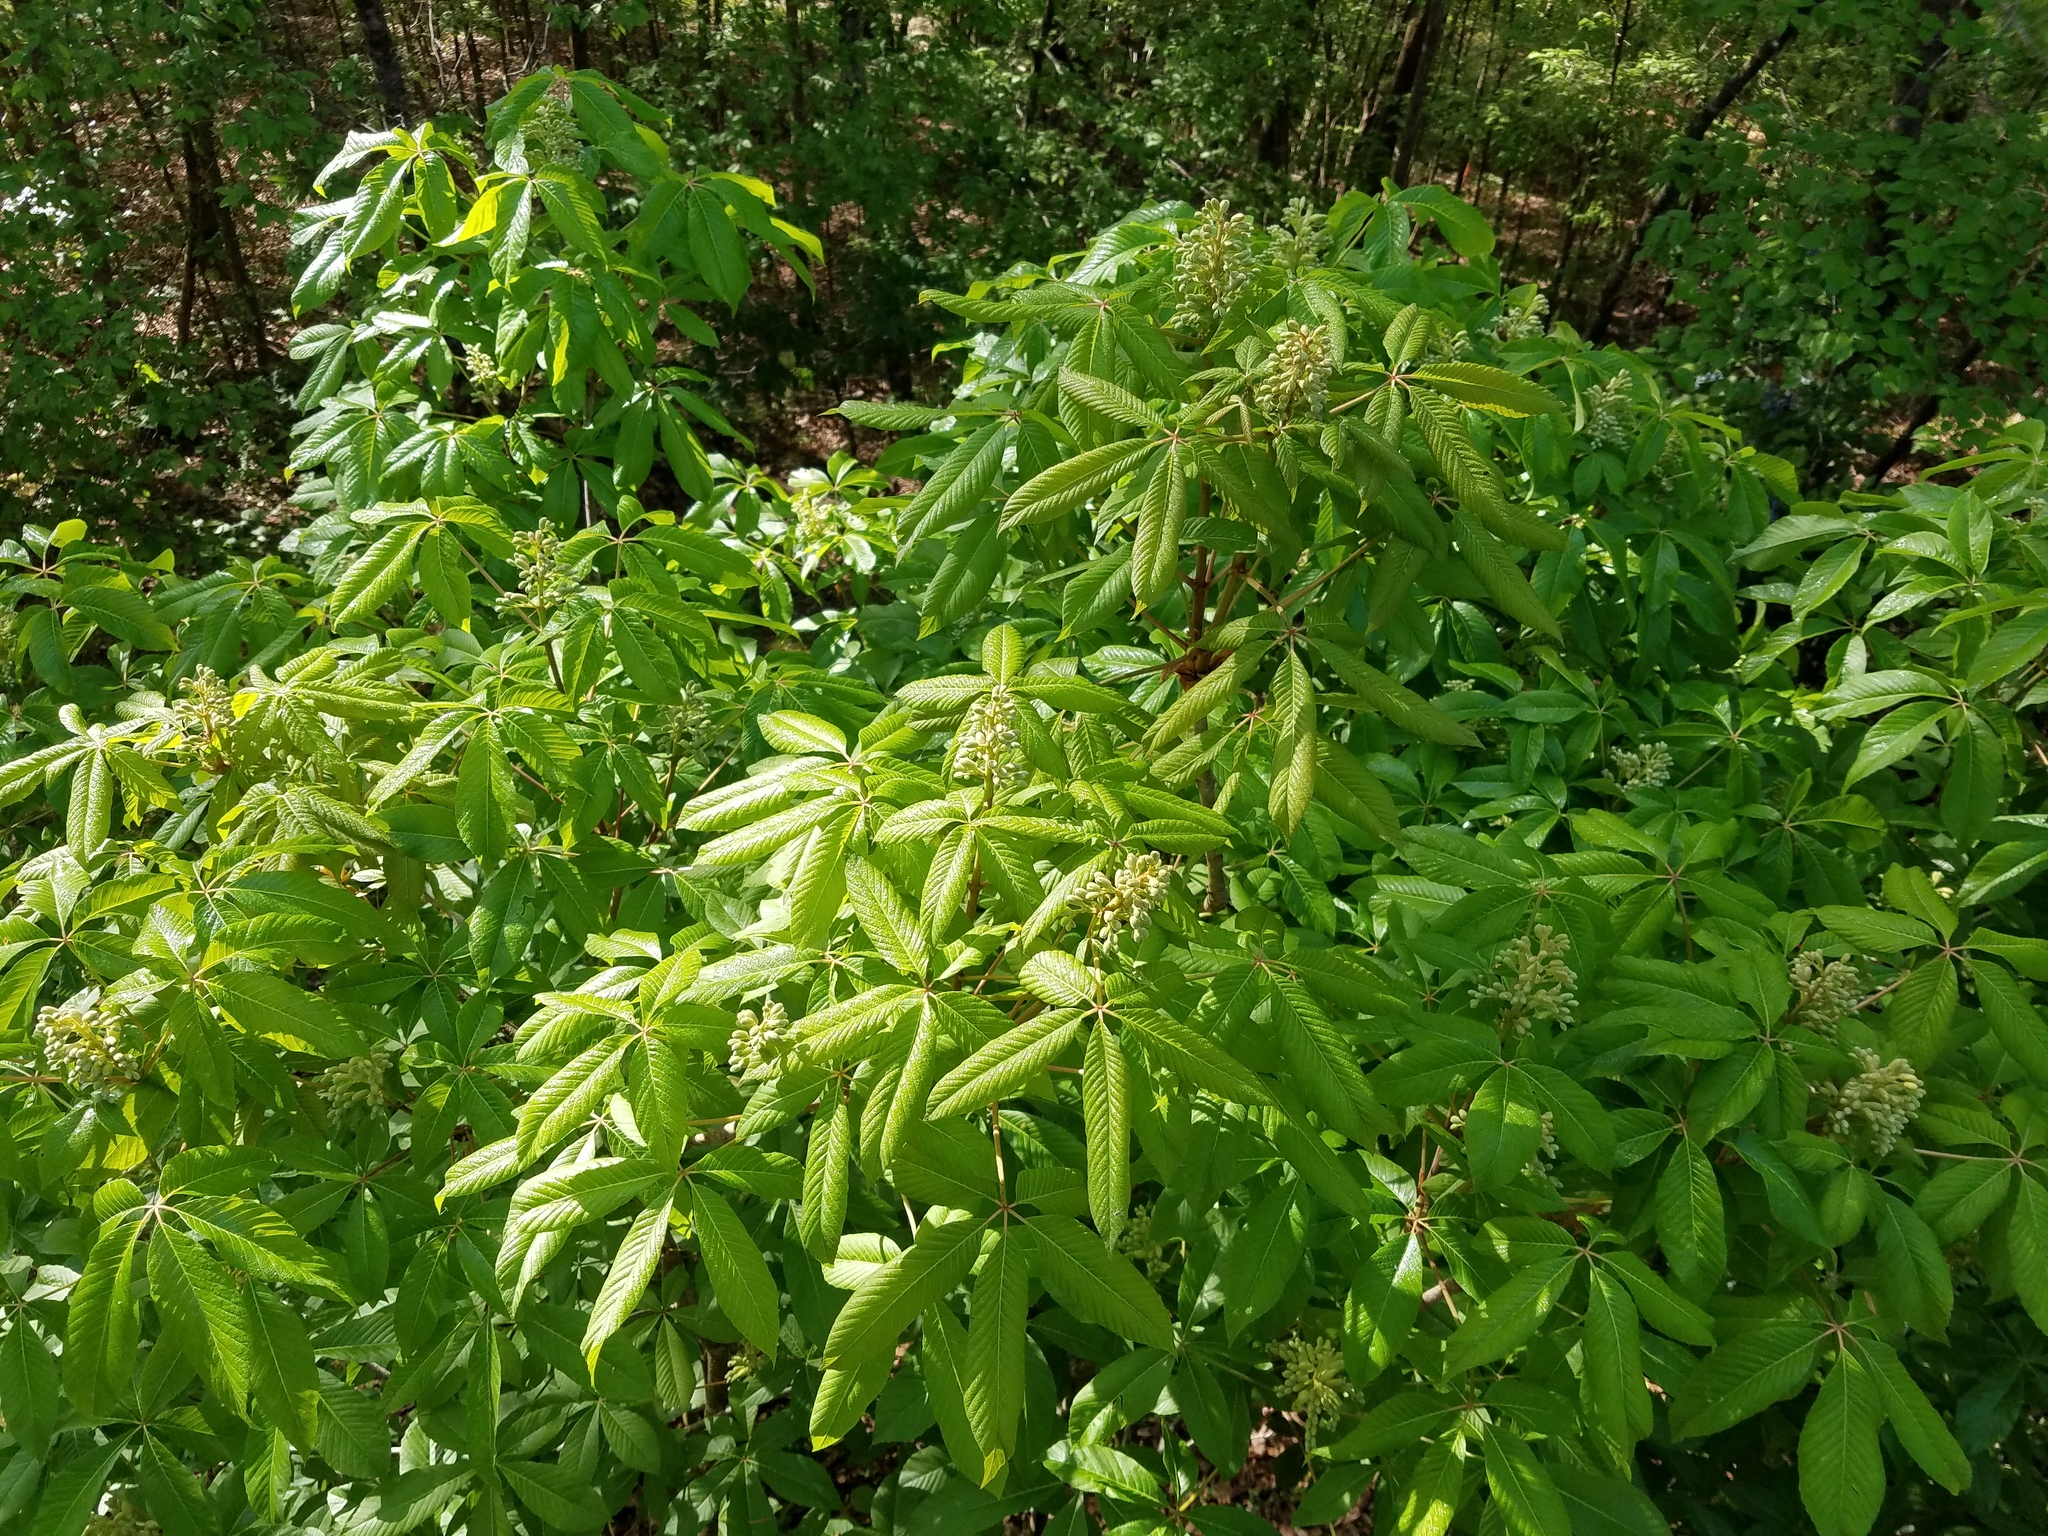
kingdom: Plantae
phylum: Tracheophyta
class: Magnoliopsida
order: Sapindales
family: Sapindaceae
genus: Aesculus
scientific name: Aesculus sylvatica
